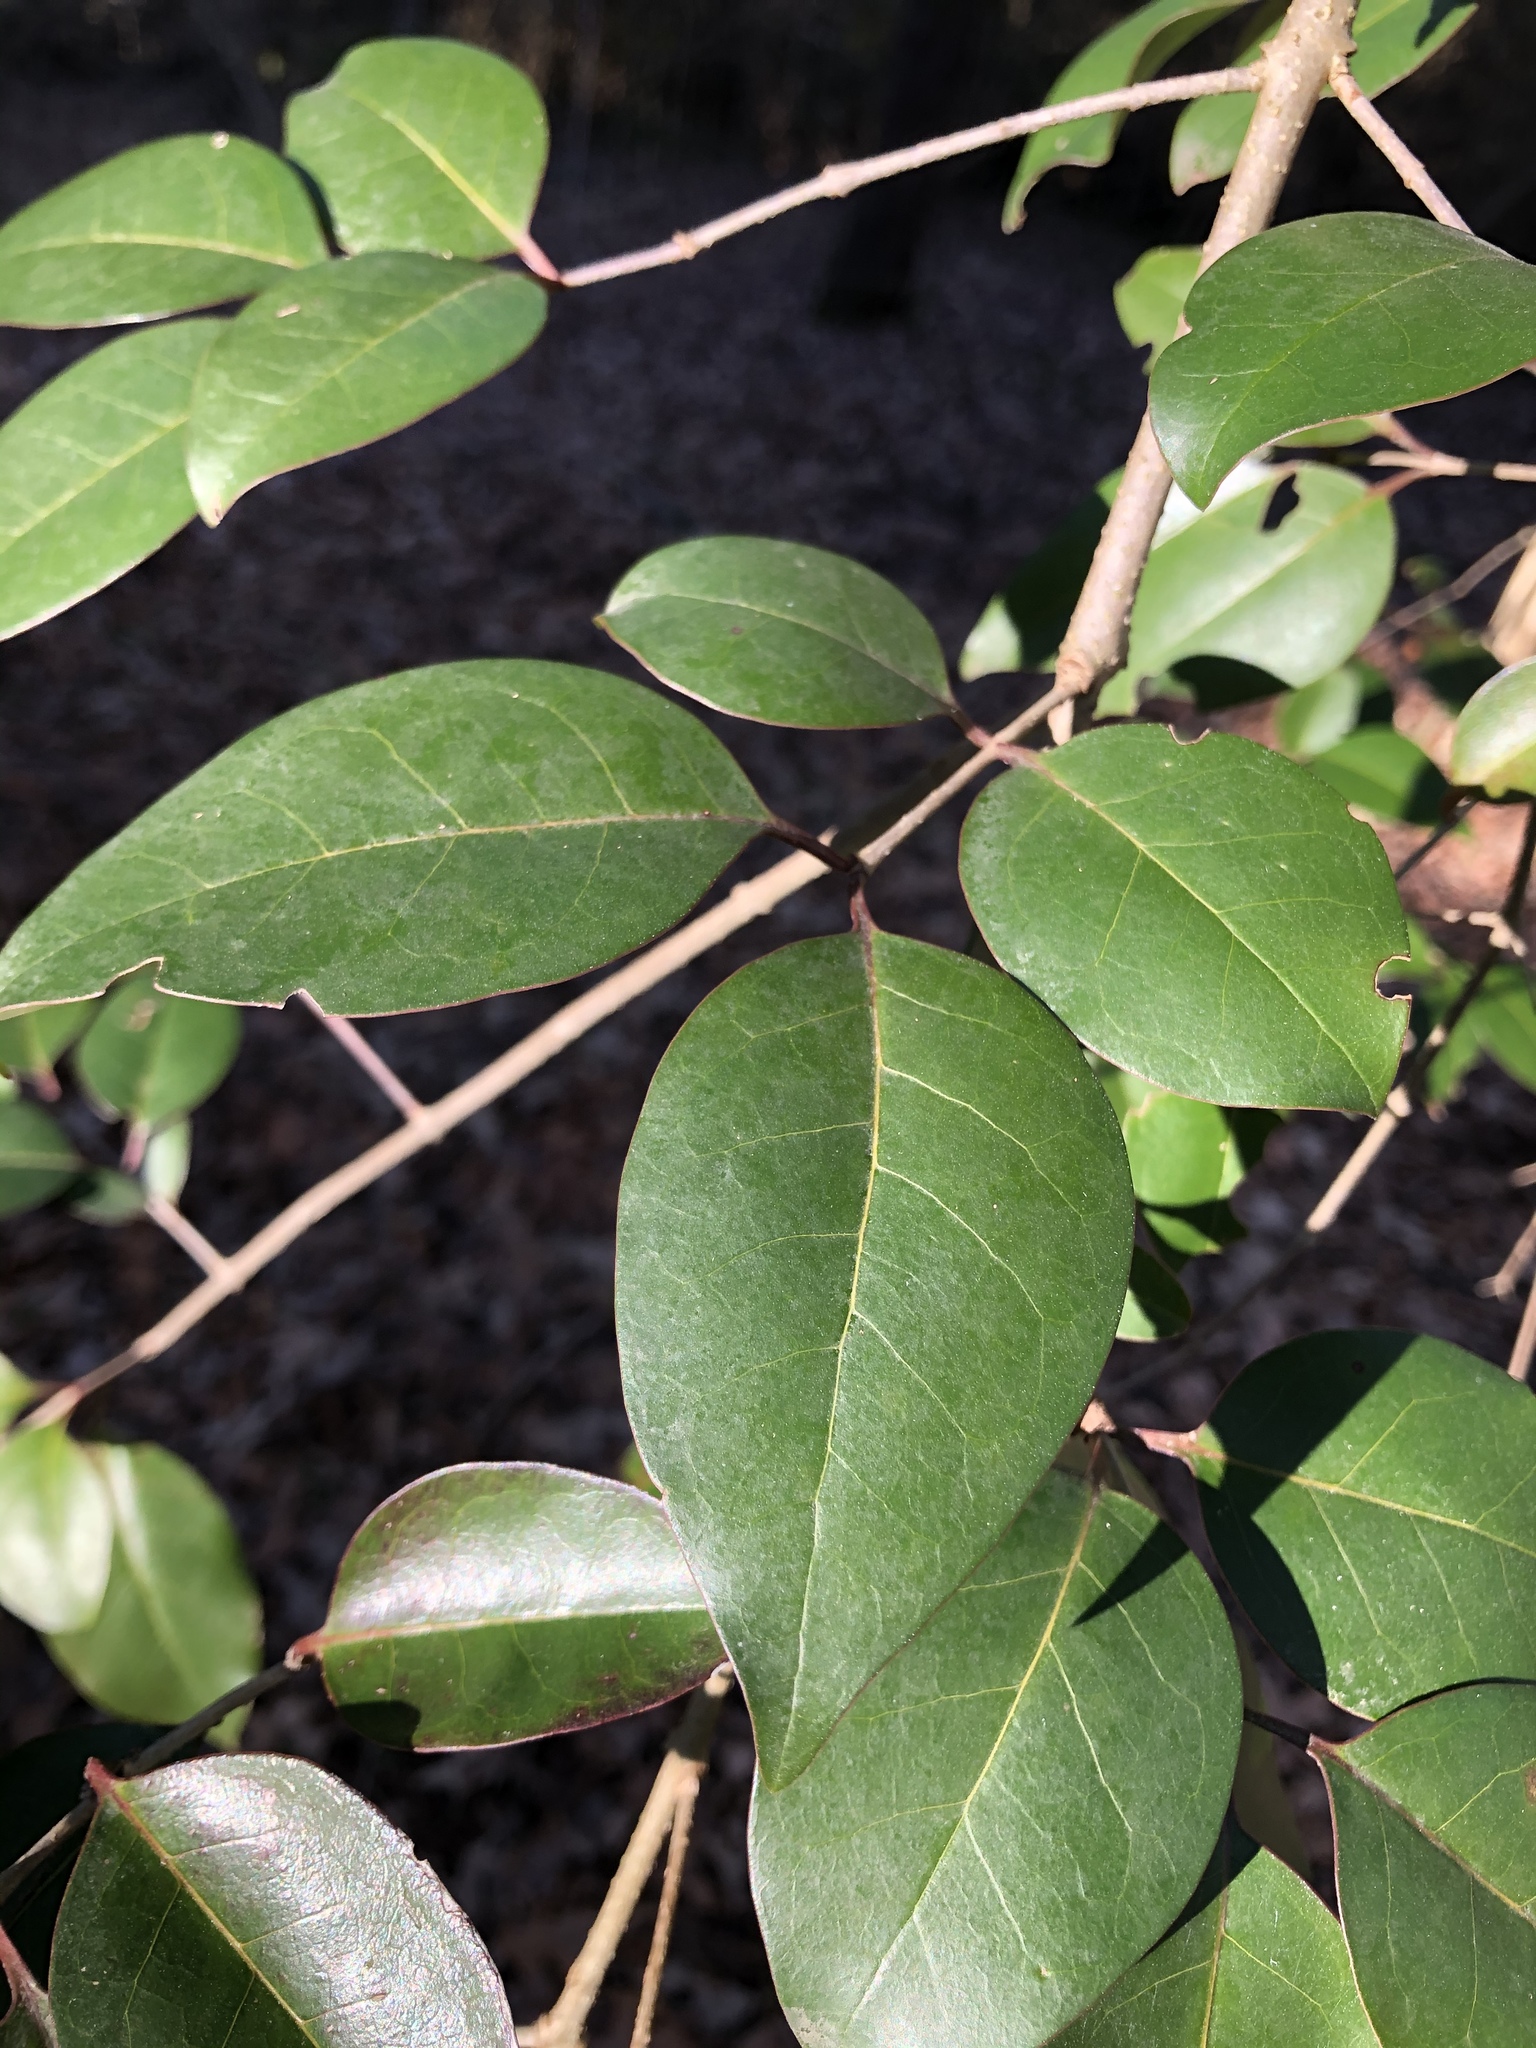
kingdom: Plantae
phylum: Tracheophyta
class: Magnoliopsida
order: Lamiales
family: Oleaceae
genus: Ligustrum
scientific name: Ligustrum lucidum
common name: Glossy privet
